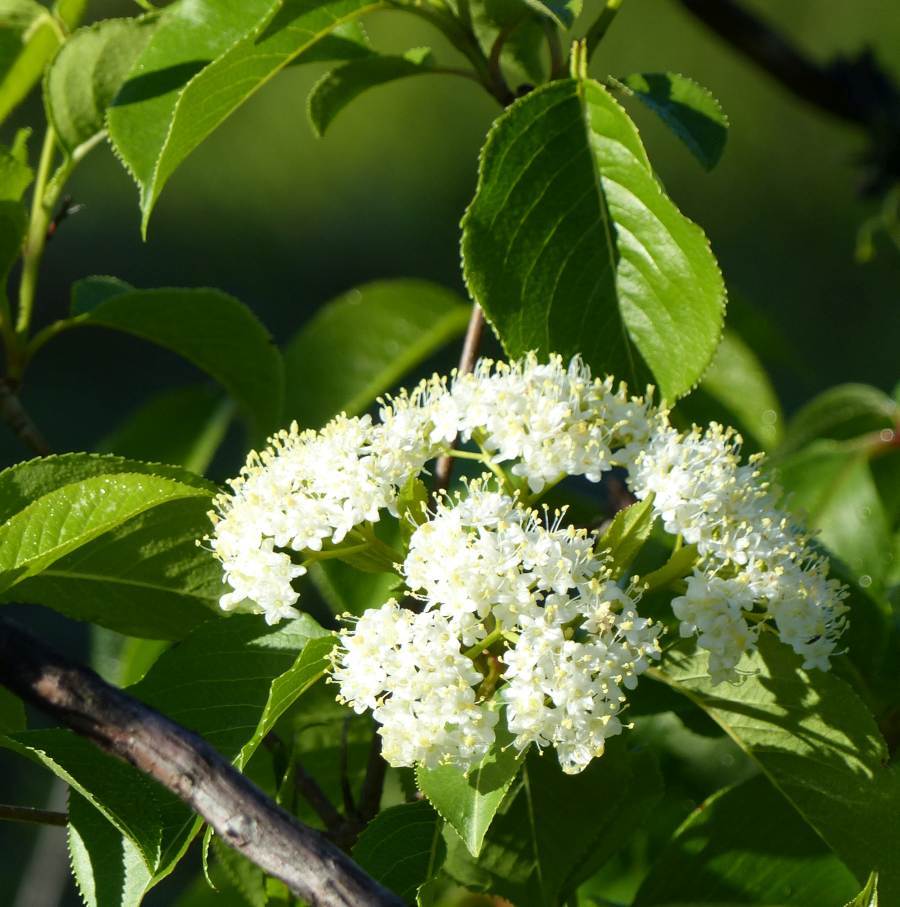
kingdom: Plantae
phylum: Tracheophyta
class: Magnoliopsida
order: Dipsacales
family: Viburnaceae
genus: Viburnum
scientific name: Viburnum lentago
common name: Black haw
